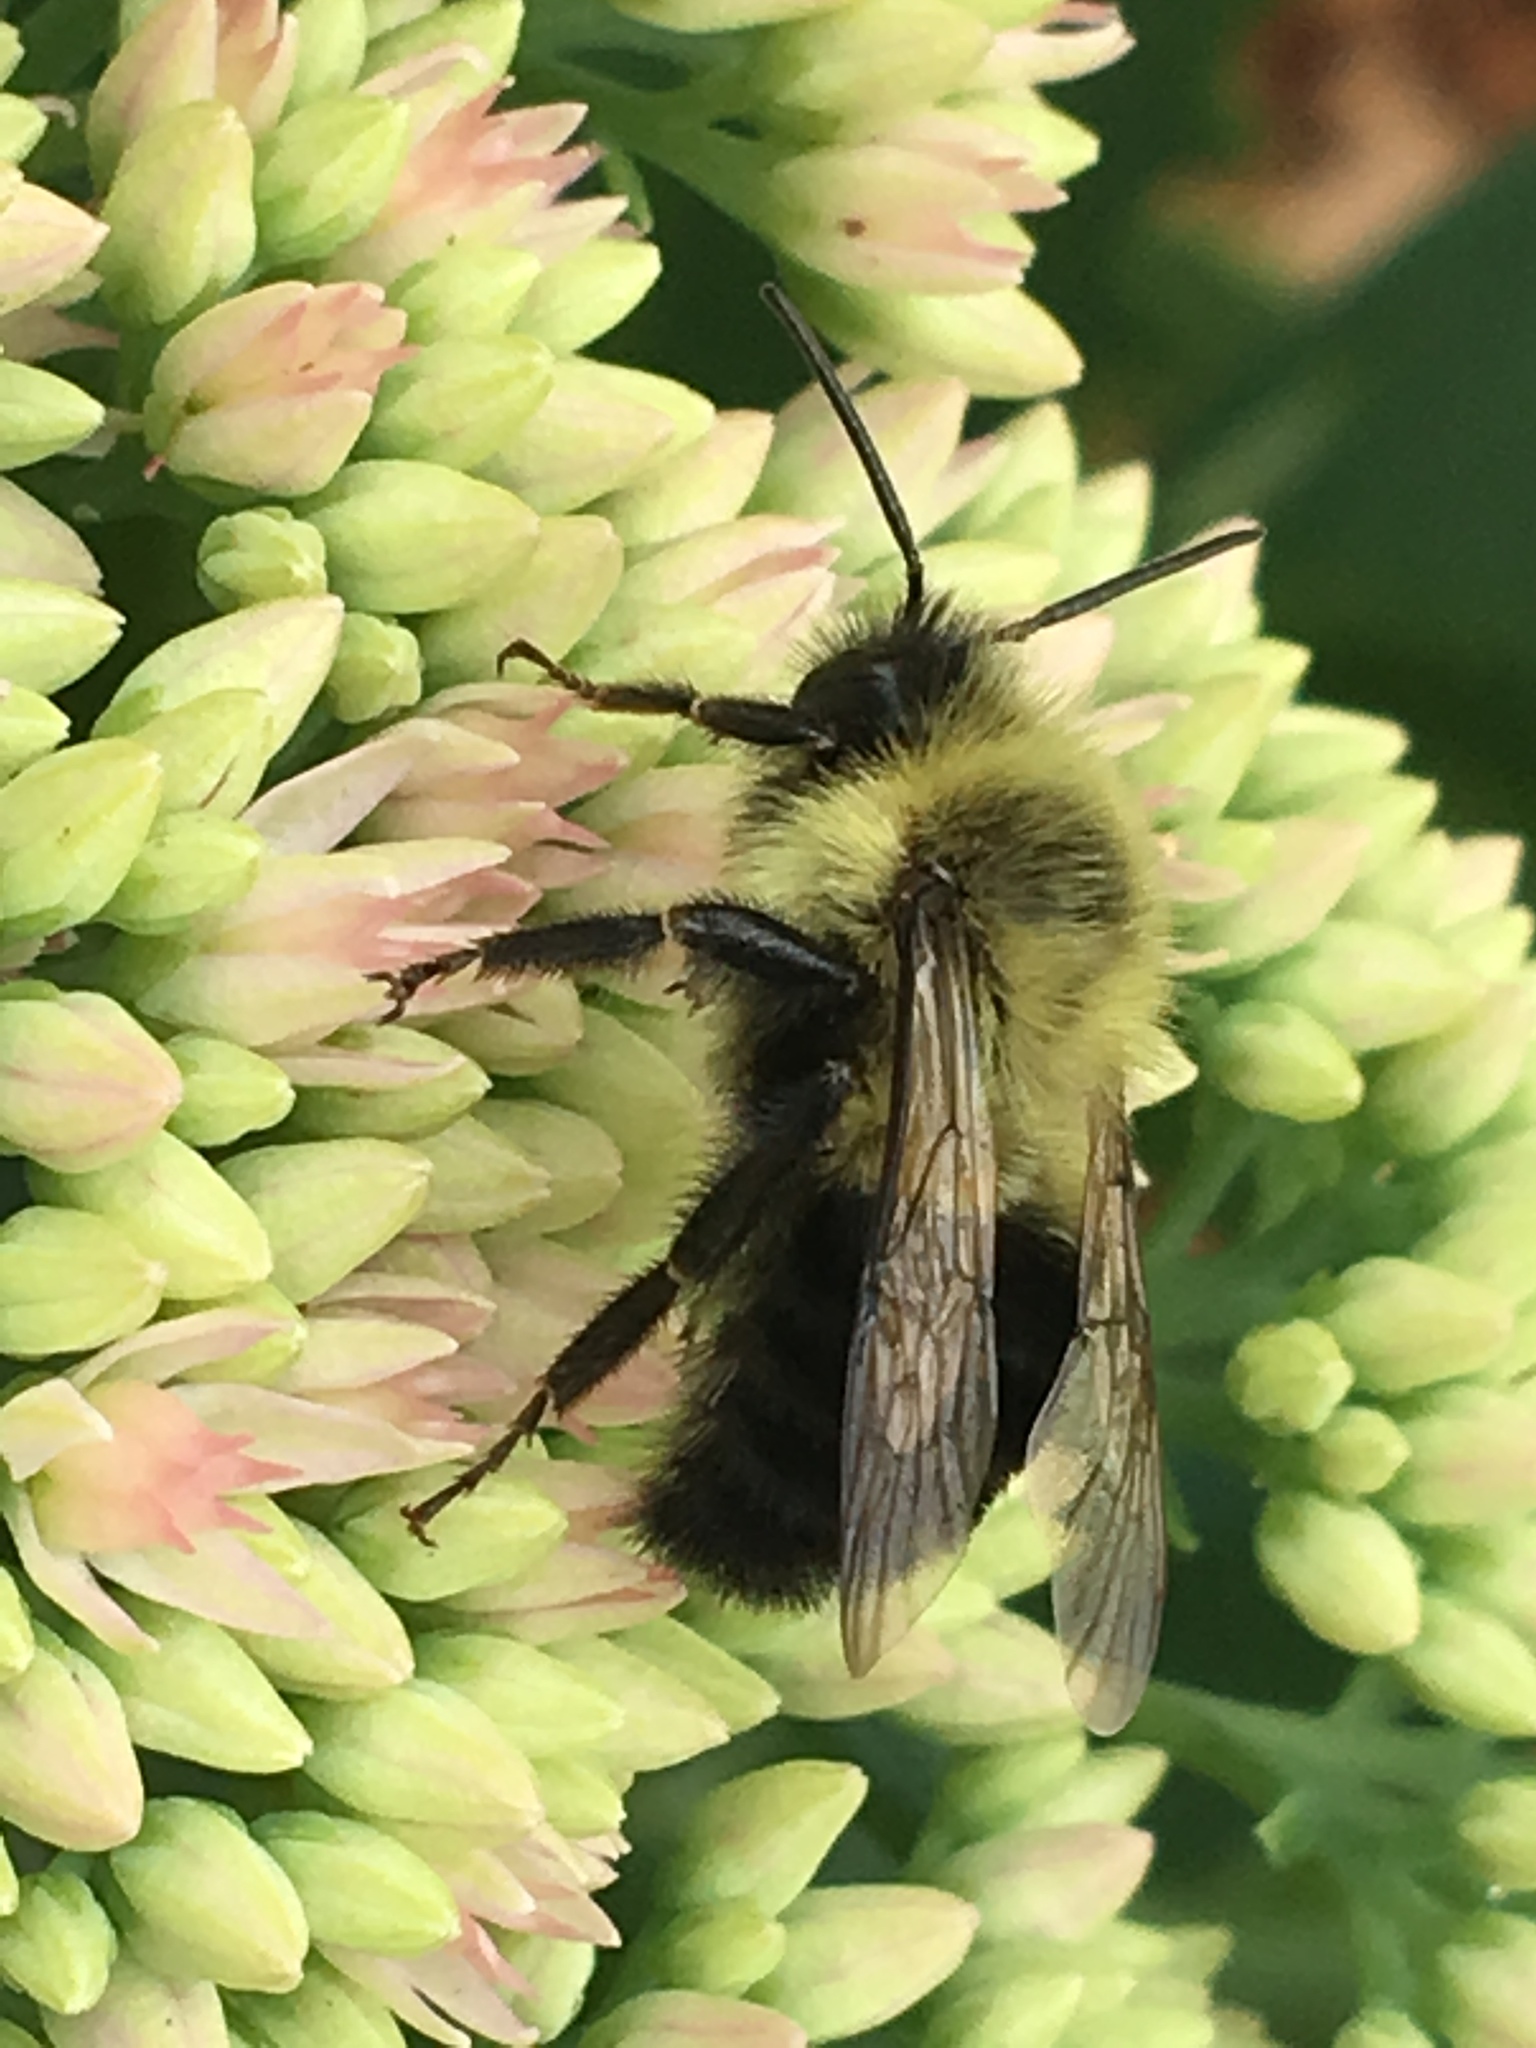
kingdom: Animalia
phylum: Arthropoda
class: Insecta
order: Hymenoptera
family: Apidae
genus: Bombus
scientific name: Bombus impatiens
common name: Common eastern bumble bee
